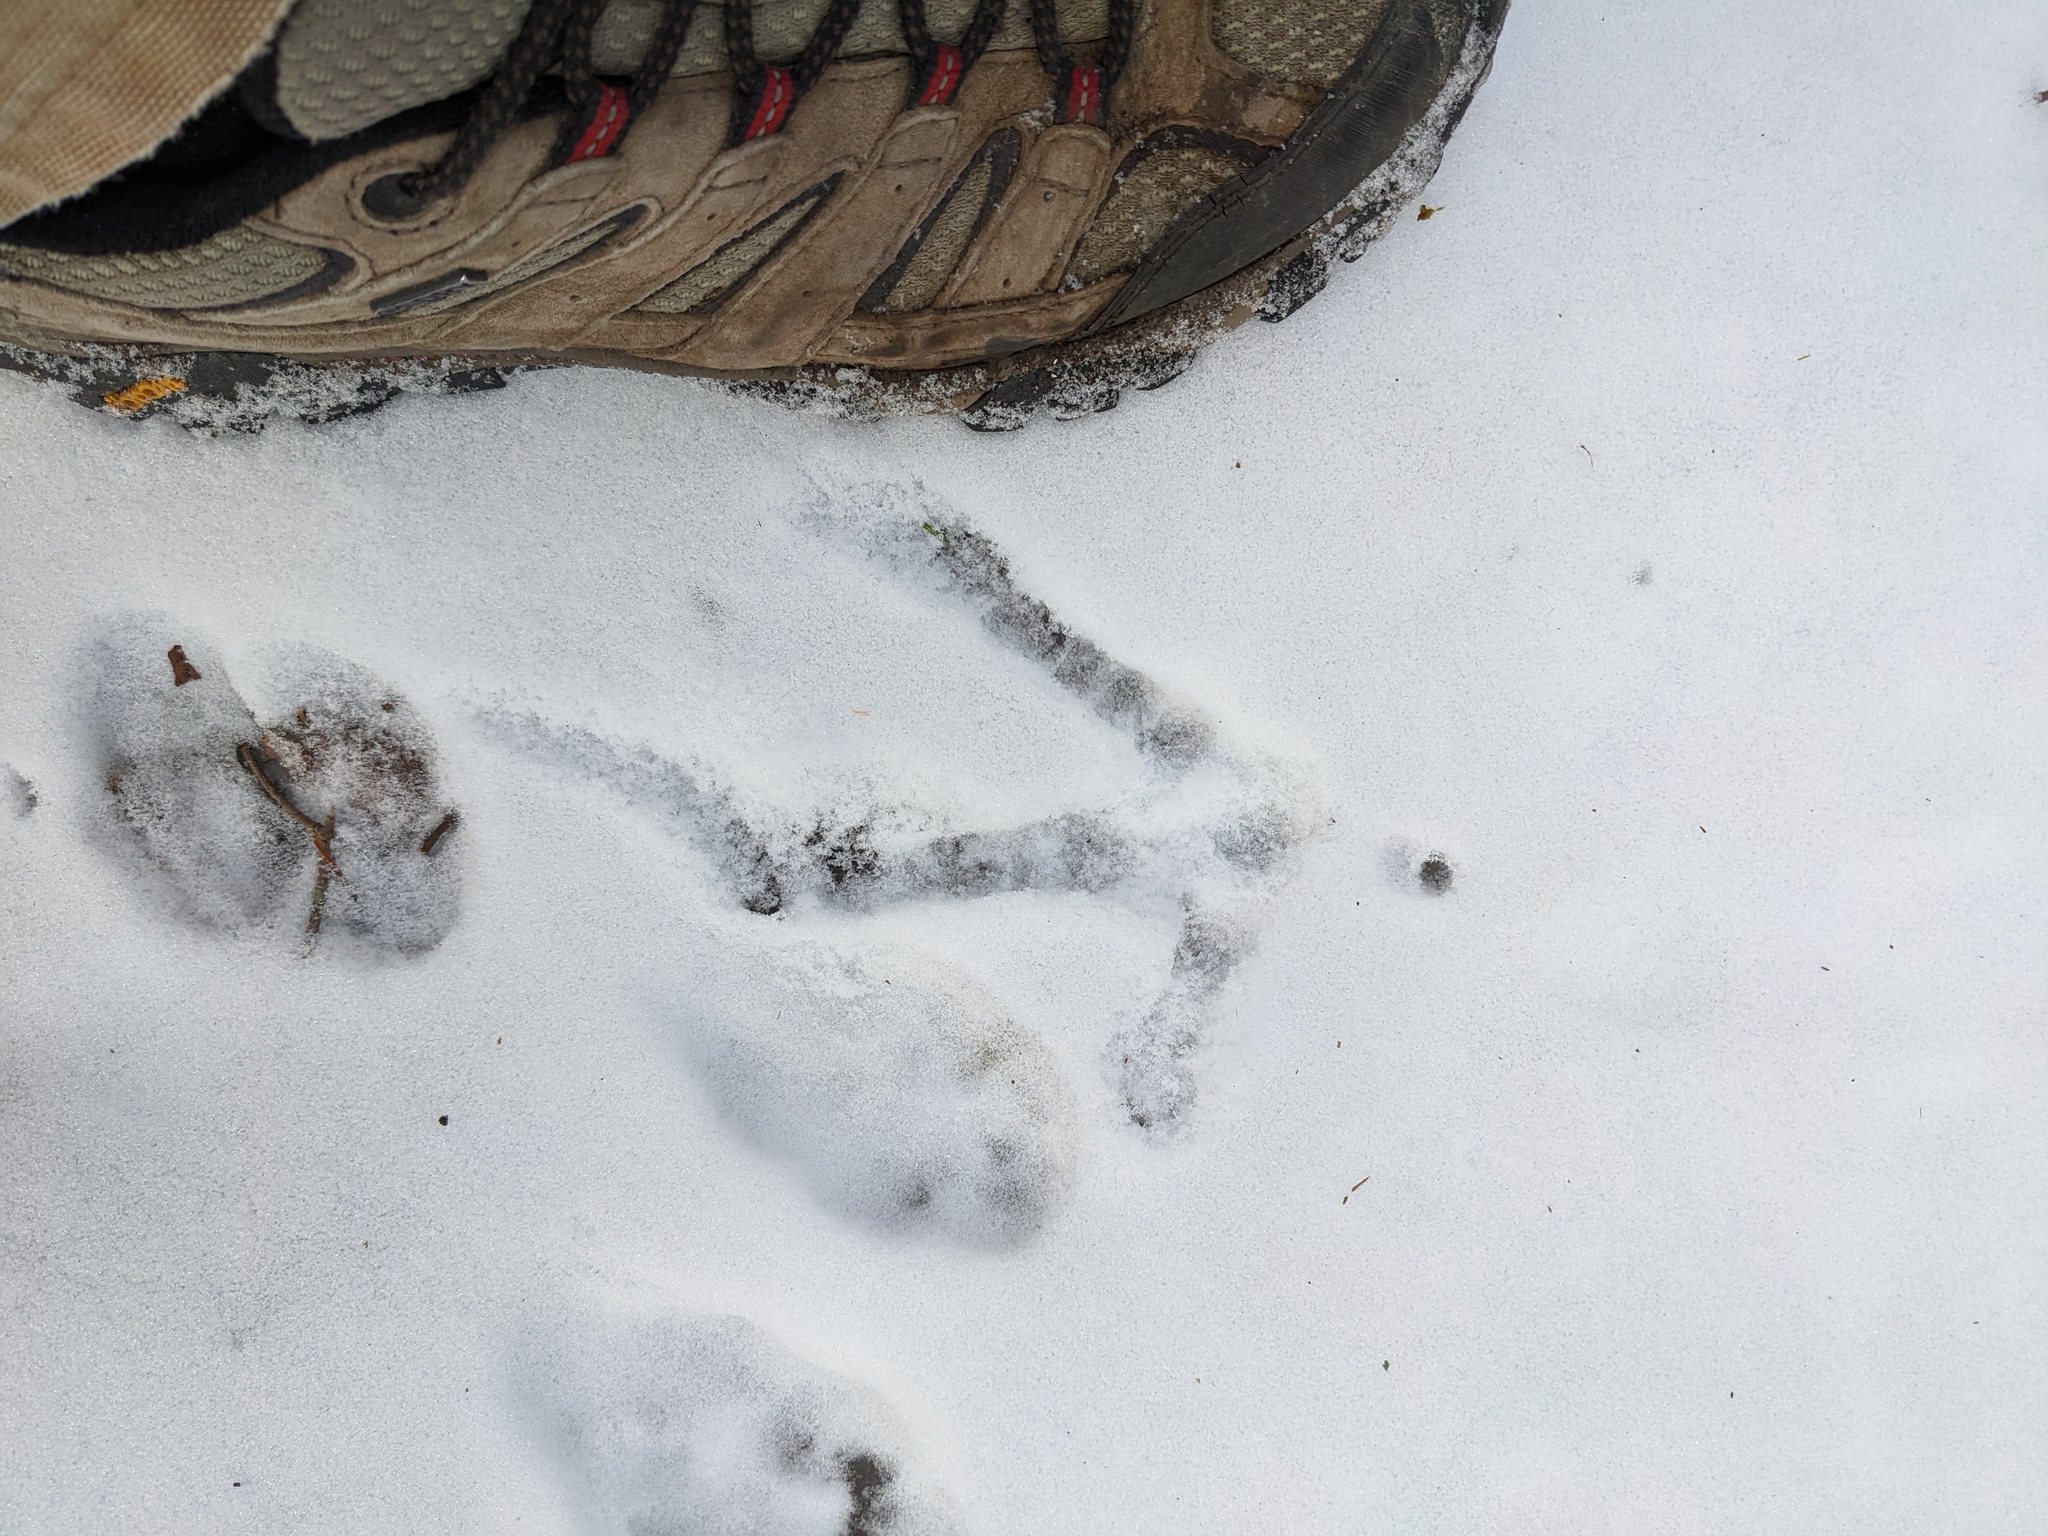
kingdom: Animalia
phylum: Chordata
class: Aves
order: Galliformes
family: Phasianidae
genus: Bonasa
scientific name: Bonasa umbellus
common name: Ruffed grouse
